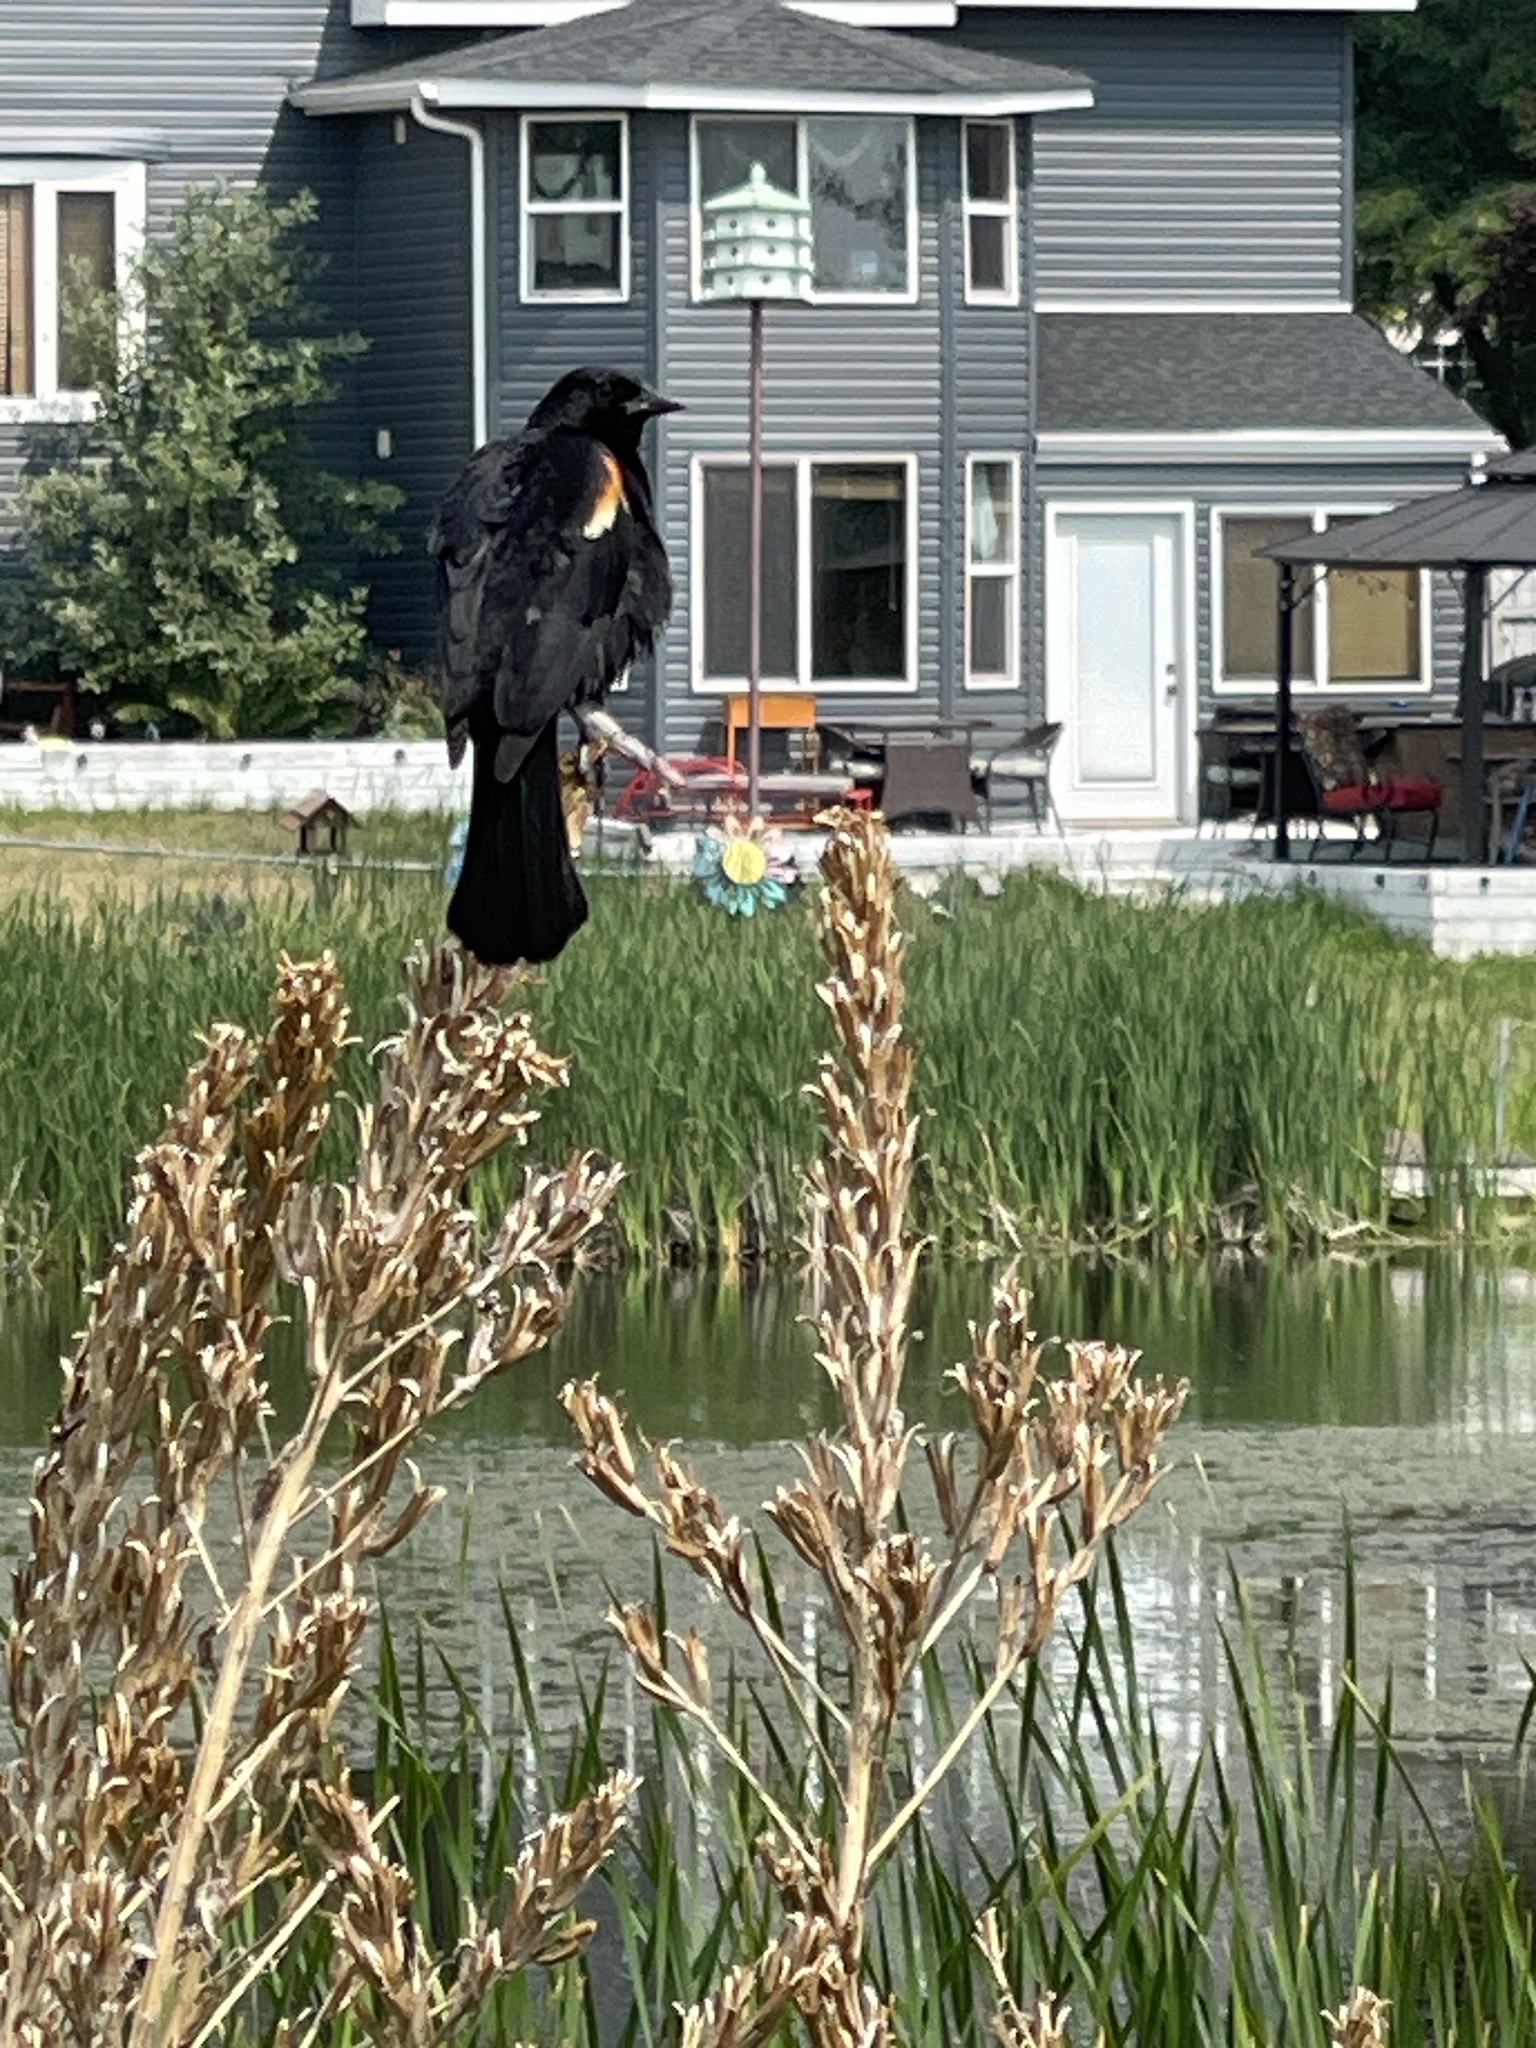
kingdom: Animalia
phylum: Chordata
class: Aves
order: Passeriformes
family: Icteridae
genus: Agelaius
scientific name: Agelaius phoeniceus
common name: Red-winged blackbird
